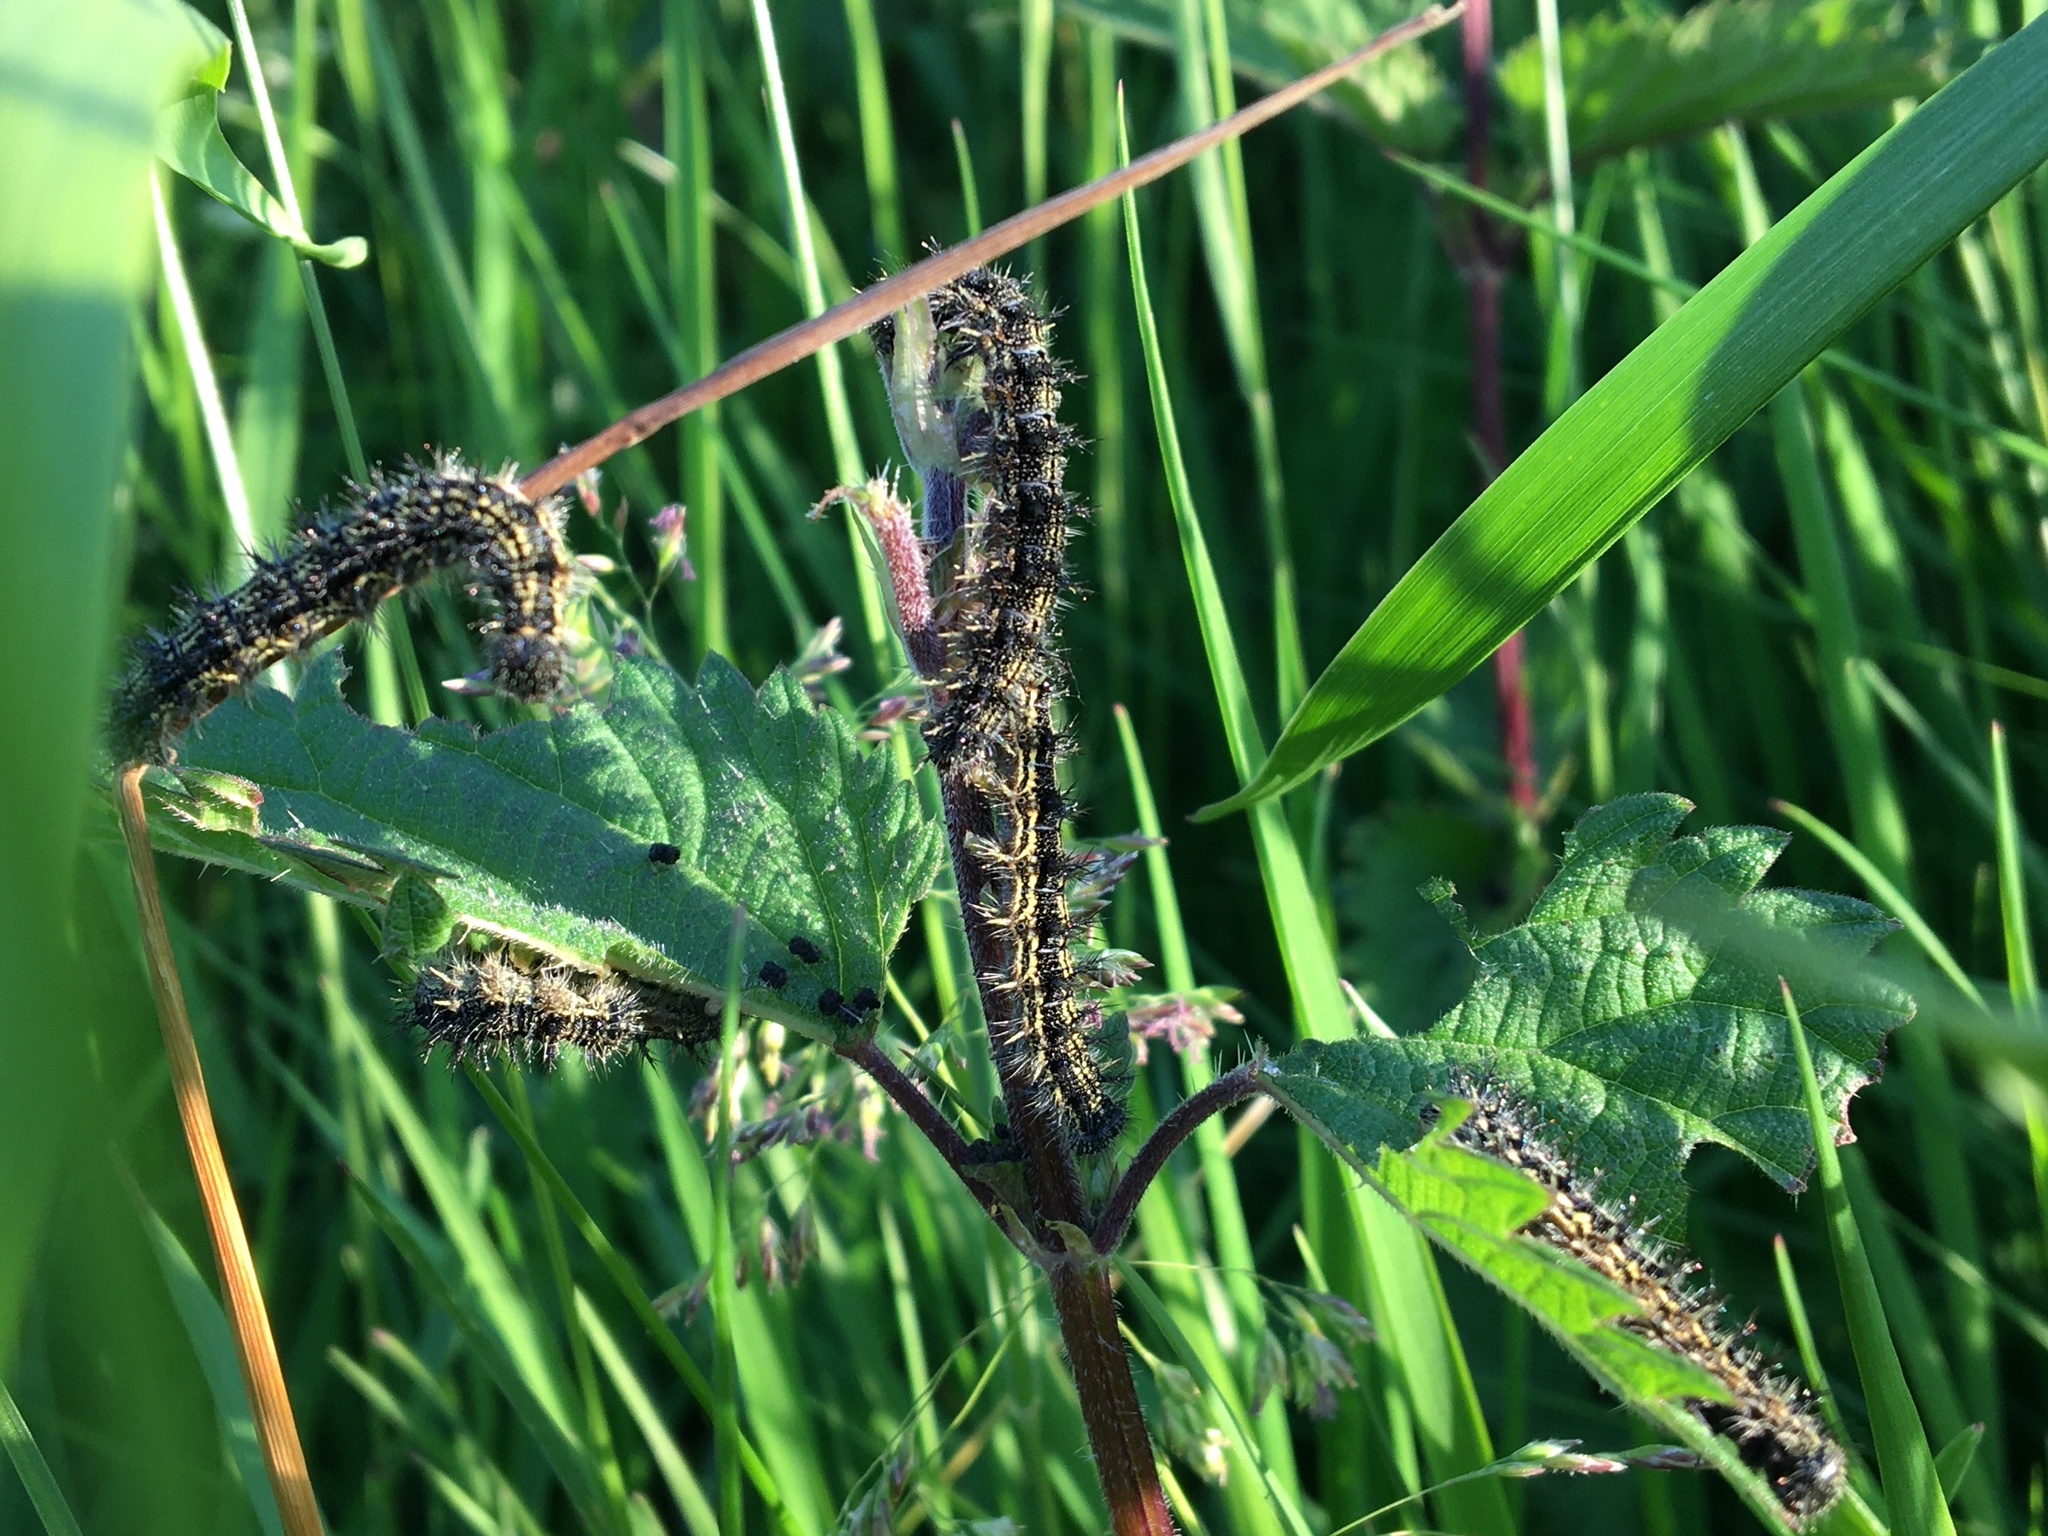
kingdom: Animalia
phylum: Arthropoda
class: Insecta
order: Lepidoptera
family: Nymphalidae
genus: Aglais
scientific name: Aglais urticae
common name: Small tortoiseshell
